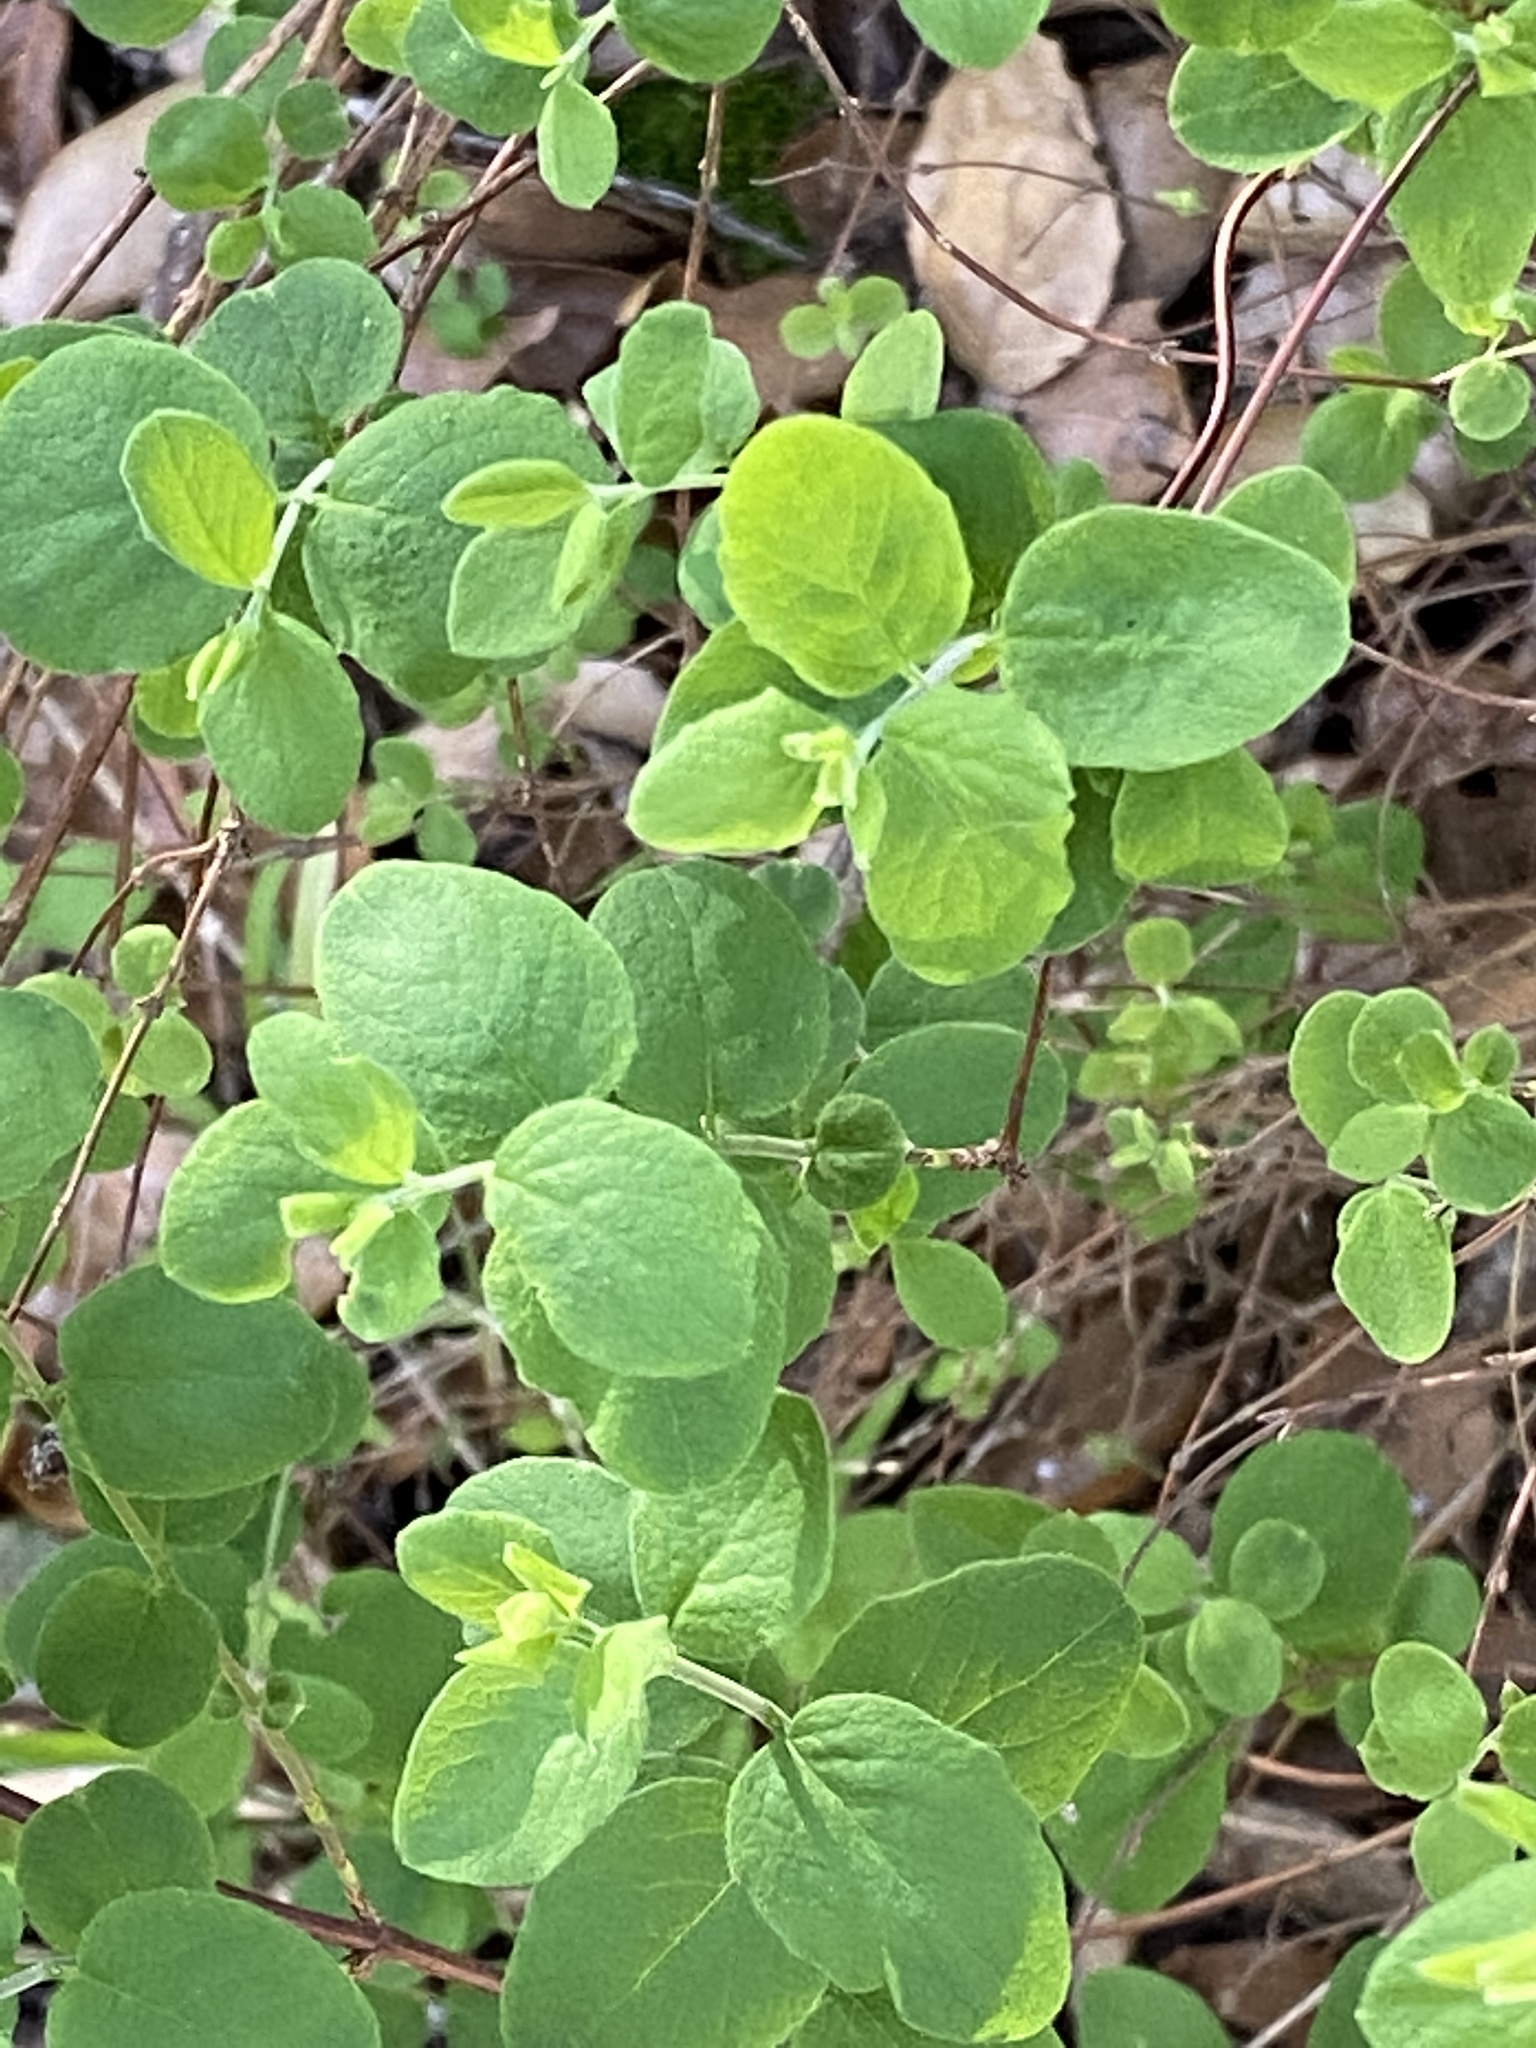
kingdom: Plantae
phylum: Tracheophyta
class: Magnoliopsida
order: Dipsacales
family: Caprifoliaceae
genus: Symphoricarpos
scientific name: Symphoricarpos mollis
